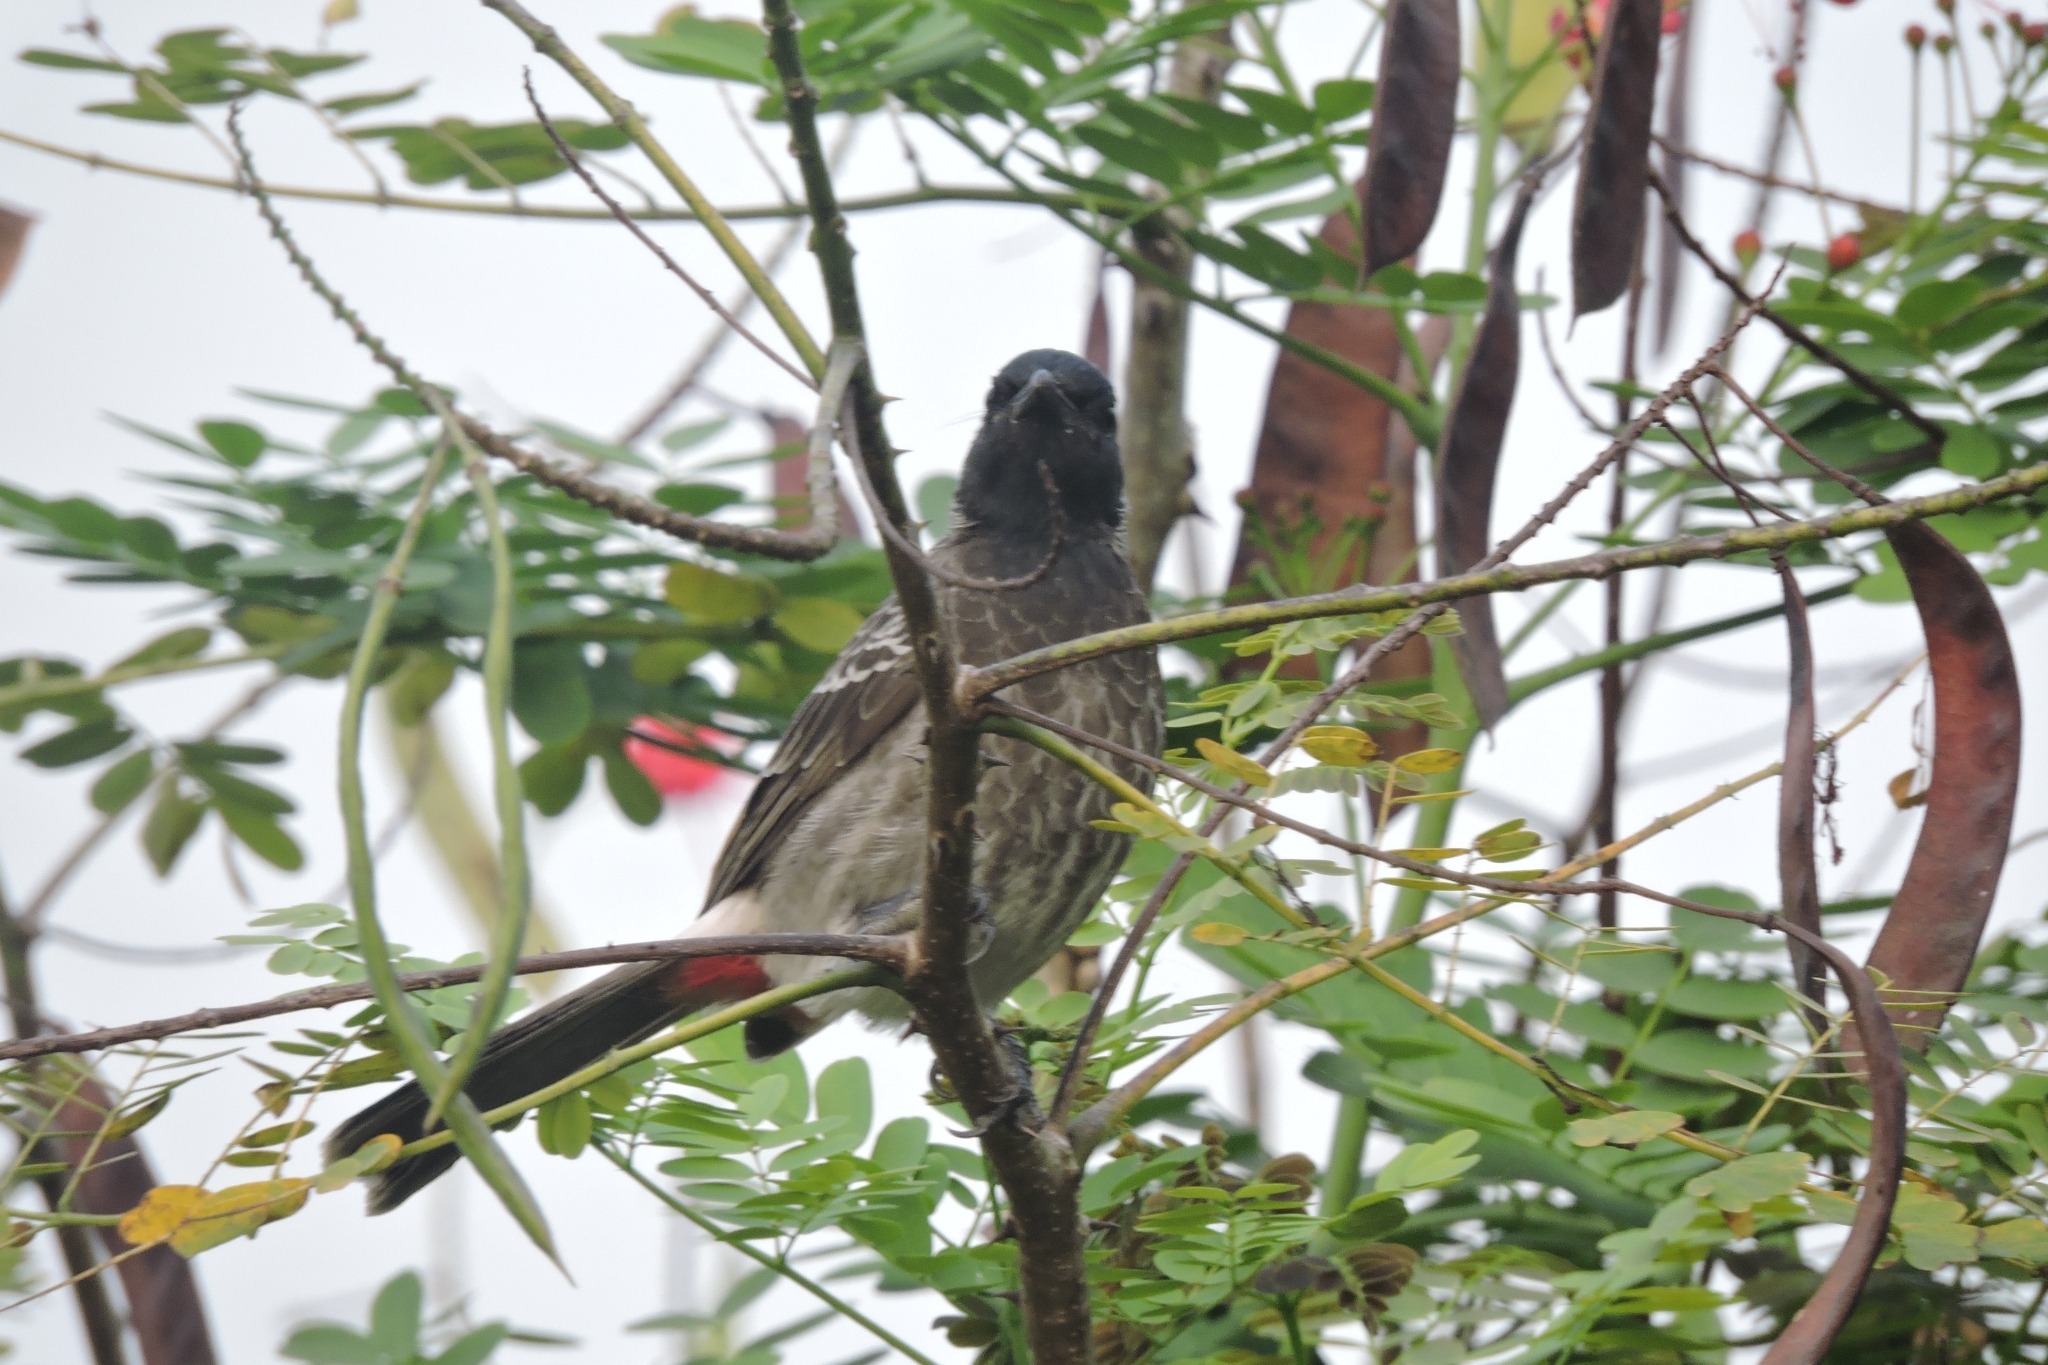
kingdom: Animalia
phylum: Chordata
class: Aves
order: Passeriformes
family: Pycnonotidae
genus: Pycnonotus
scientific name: Pycnonotus cafer
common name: Red-vented bulbul
